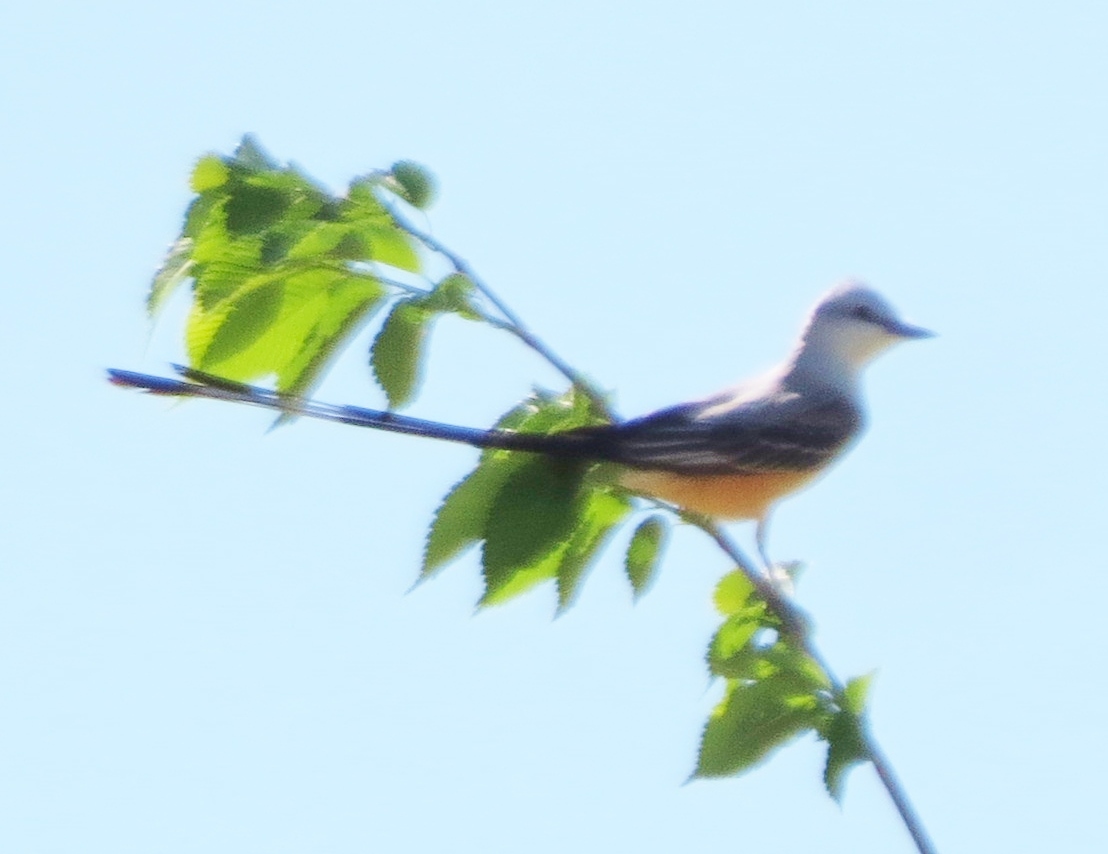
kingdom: Animalia
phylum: Chordata
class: Aves
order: Passeriformes
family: Tyrannidae
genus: Tyrannus
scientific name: Tyrannus forficatus
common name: Scissor-tailed flycatcher
